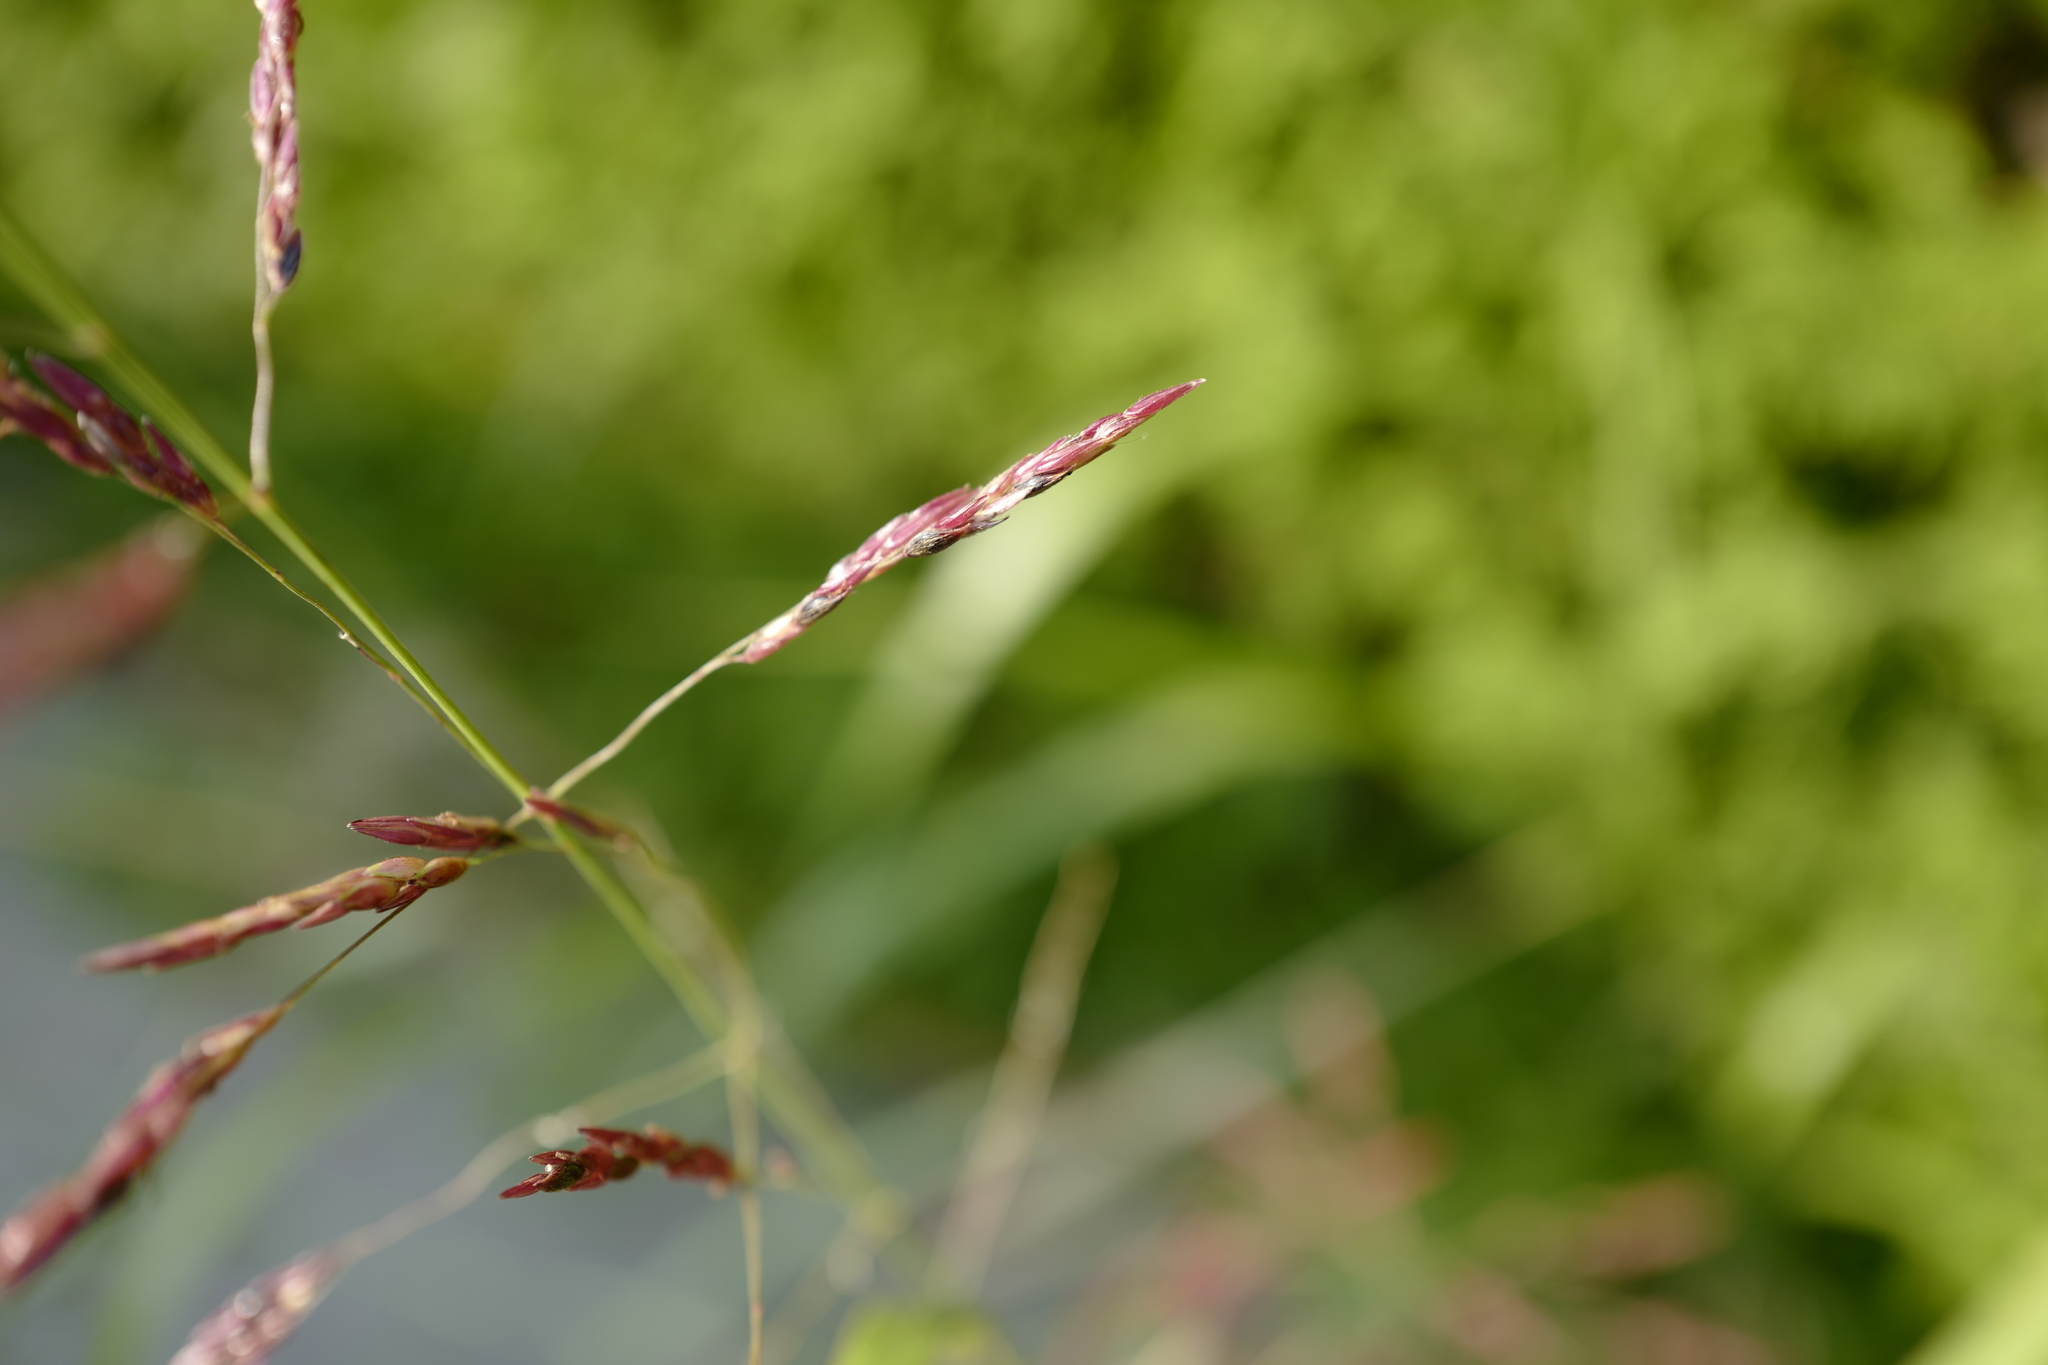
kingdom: Plantae
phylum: Tracheophyta
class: Liliopsida
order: Poales
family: Poaceae
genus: Sorghum
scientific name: Sorghum halepense
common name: Johnson-grass
